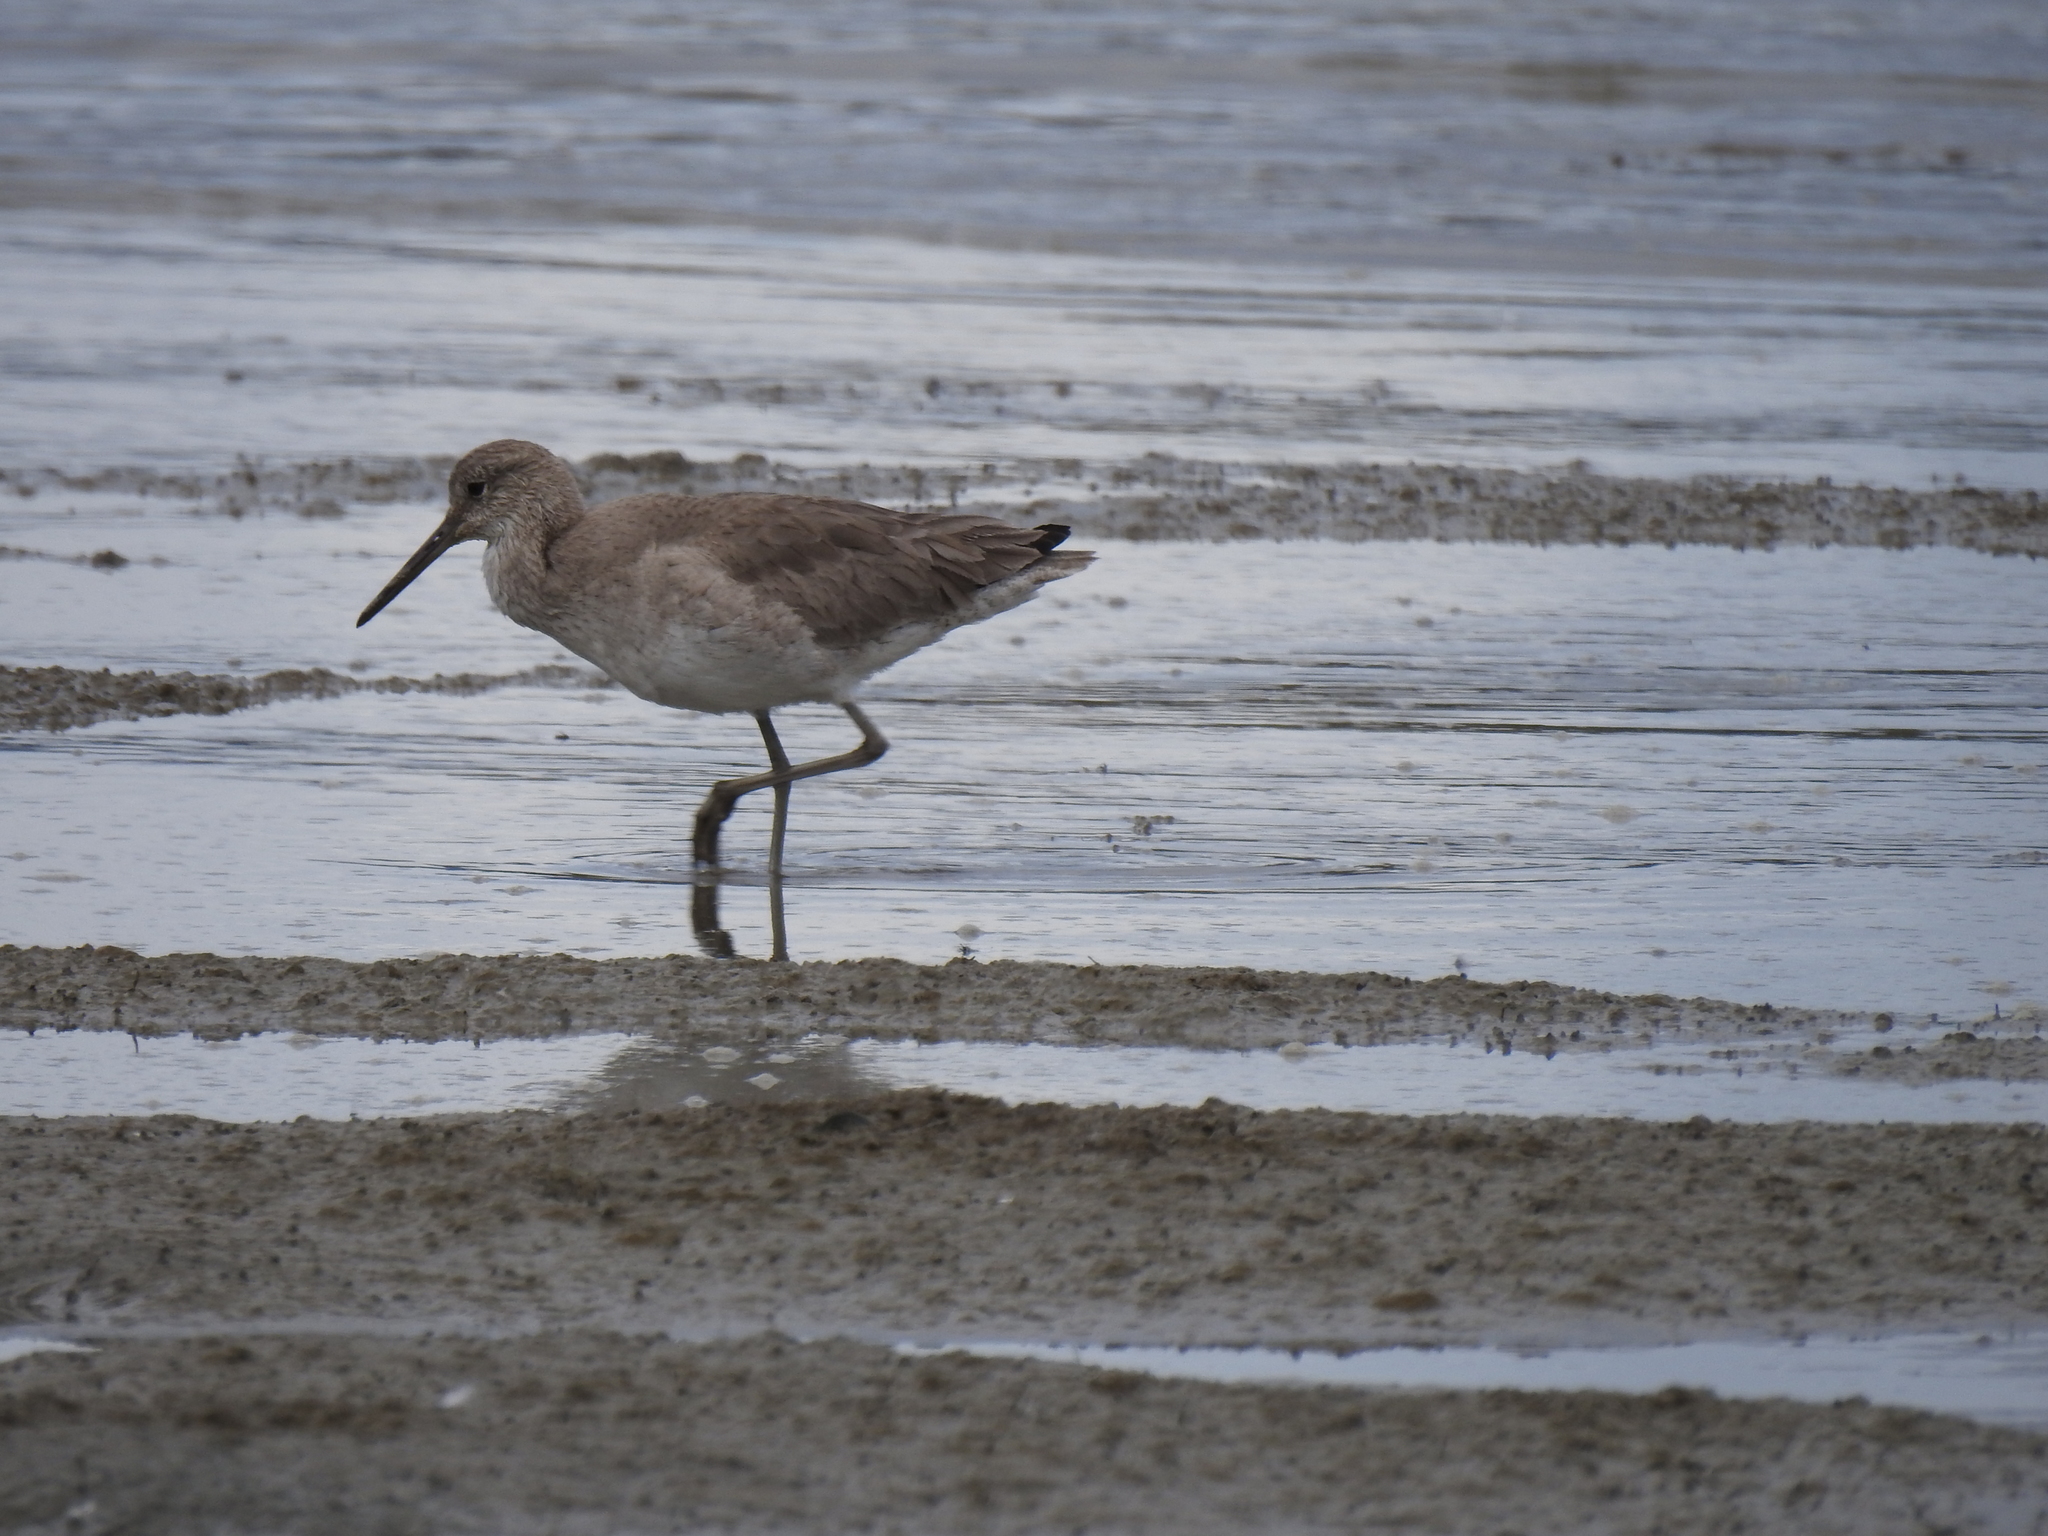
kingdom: Animalia
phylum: Chordata
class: Aves
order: Charadriiformes
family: Scolopacidae
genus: Tringa
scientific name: Tringa semipalmata
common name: Willet
